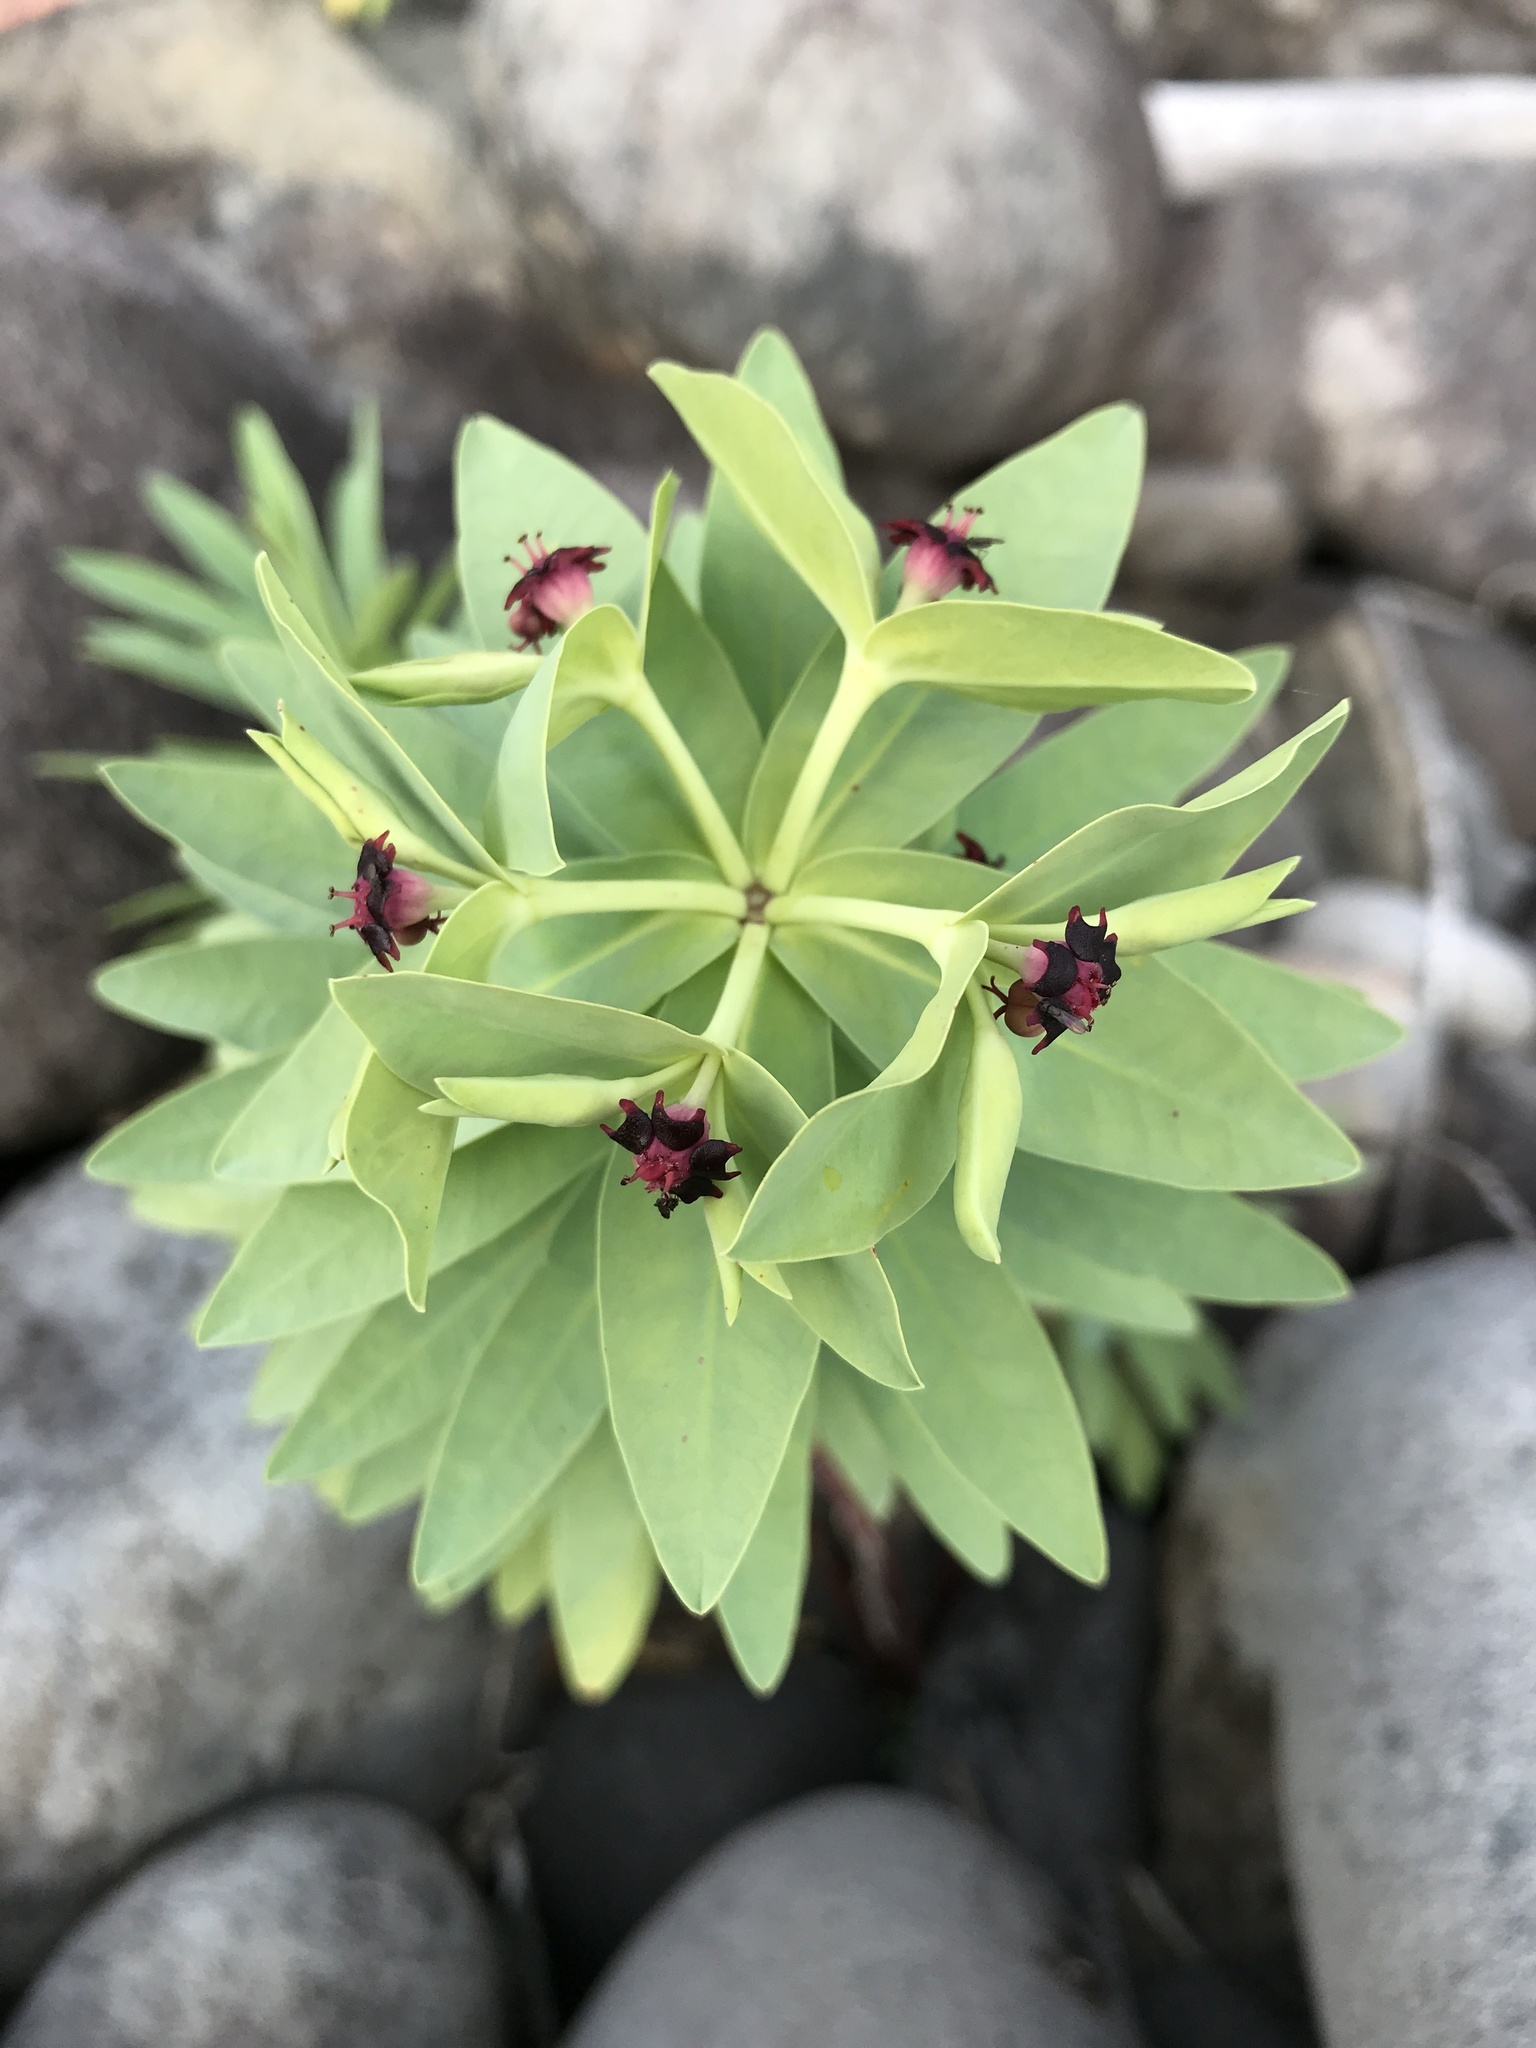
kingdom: Plantae
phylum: Tracheophyta
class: Magnoliopsida
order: Malpighiales
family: Euphorbiaceae
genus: Euphorbia
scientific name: Euphorbia glauca
